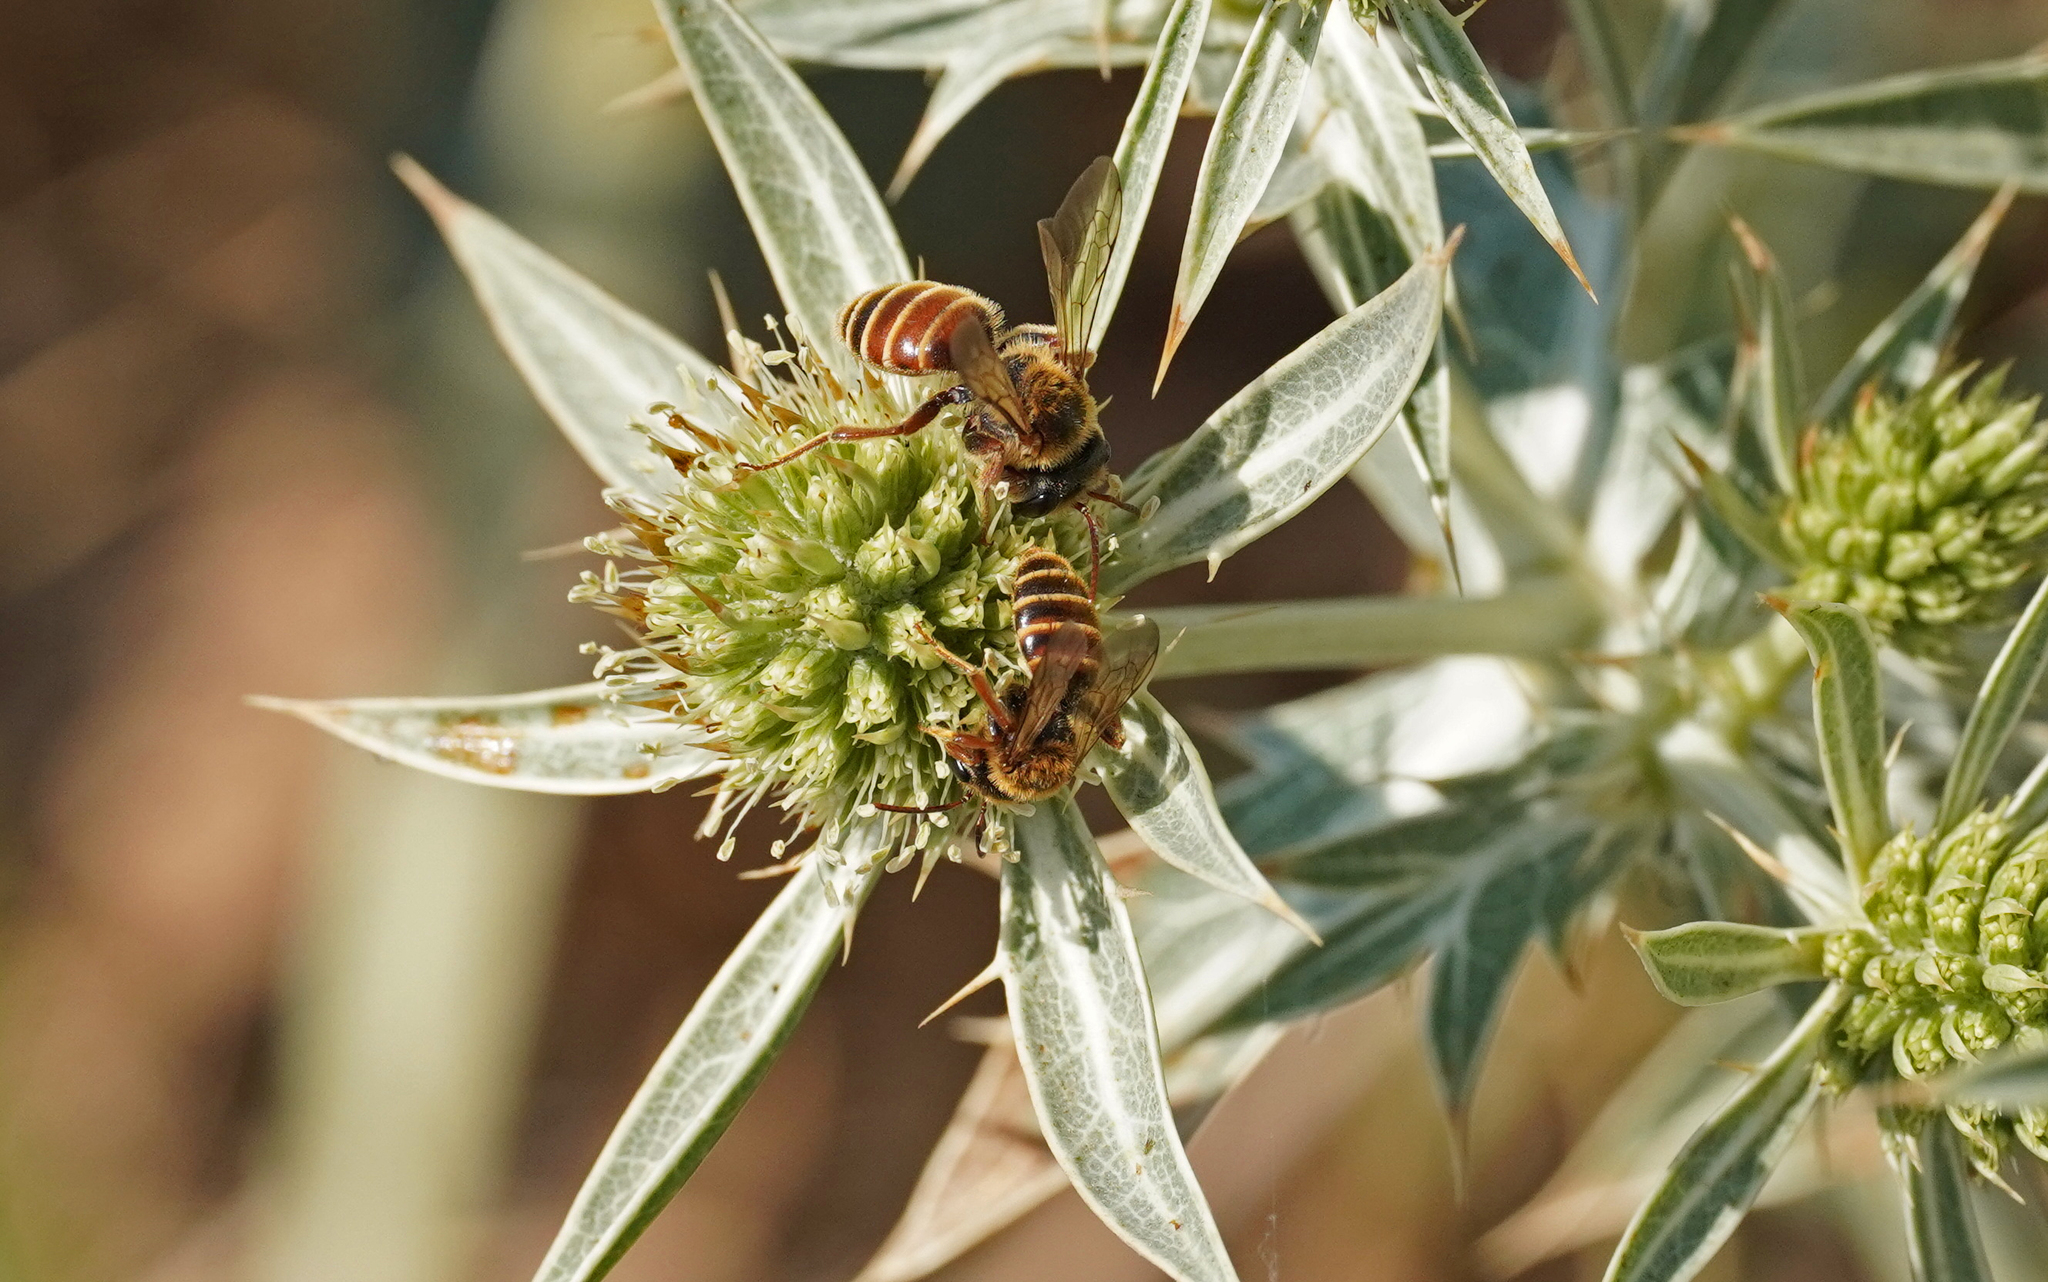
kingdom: Animalia
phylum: Arthropoda
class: Insecta
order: Hymenoptera
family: Andrenidae
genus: Andrena
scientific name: Andrena variabilis
